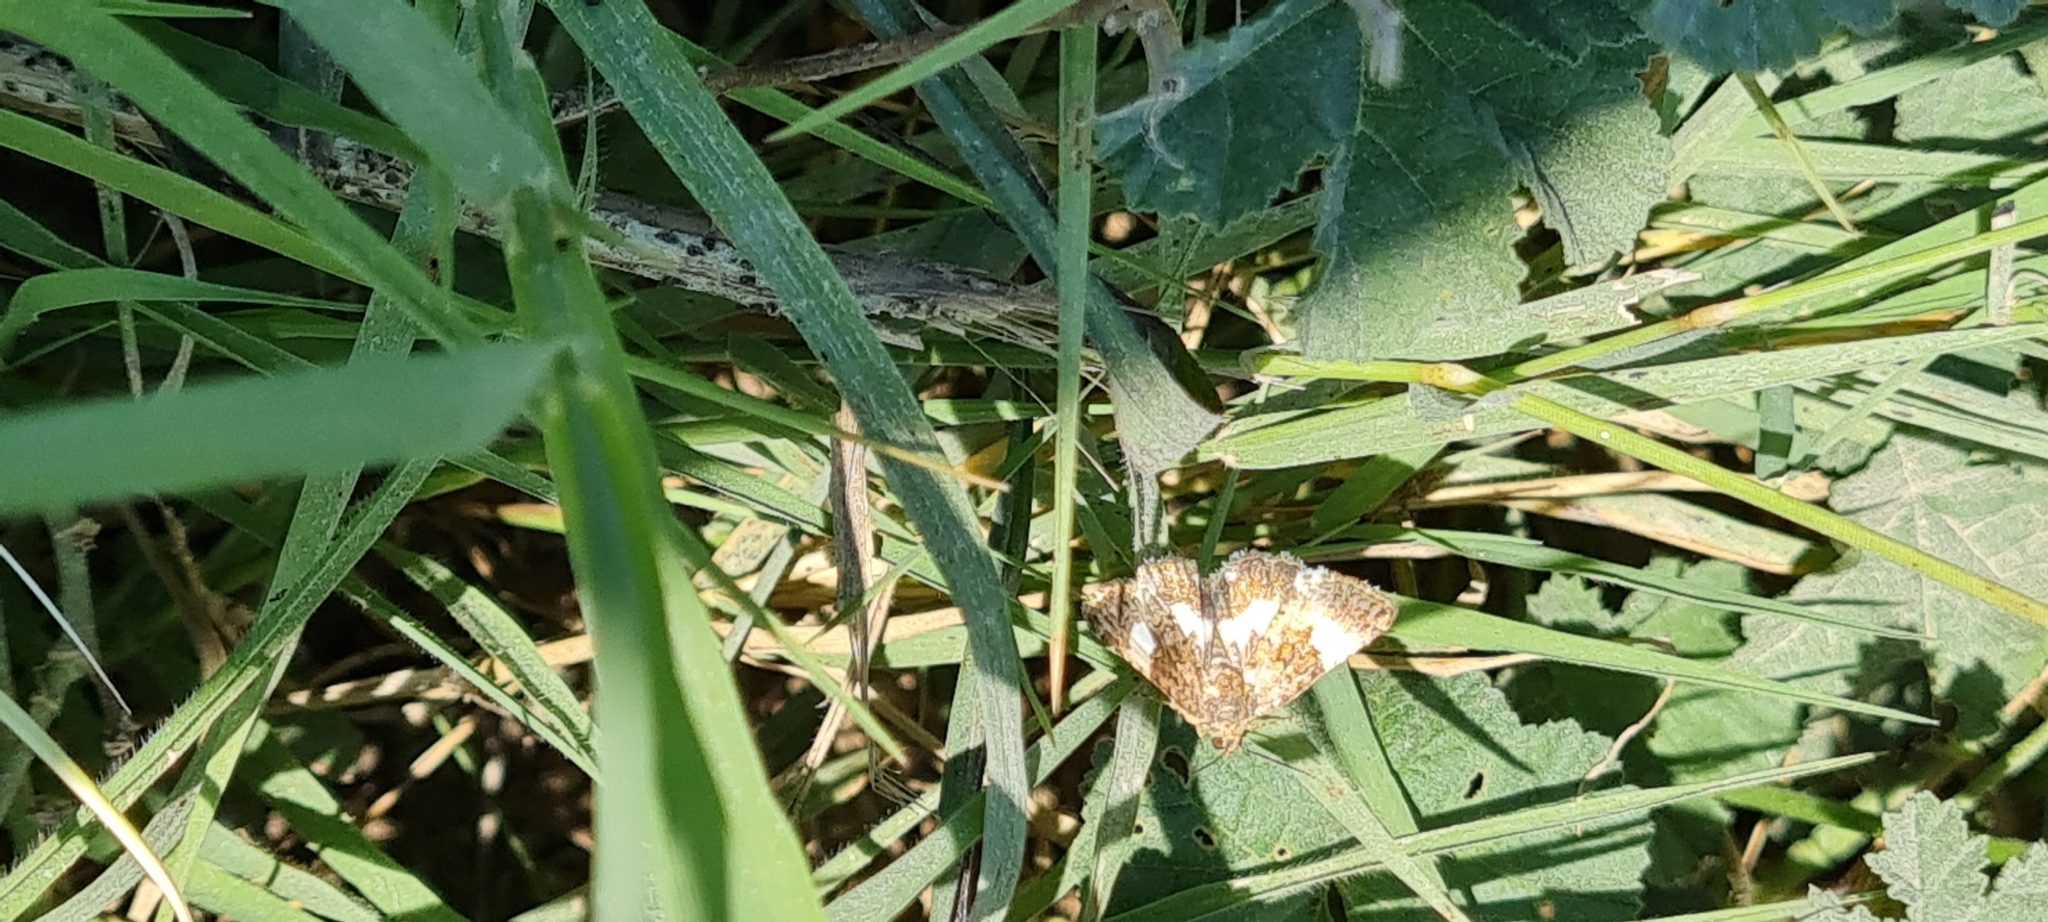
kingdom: Animalia
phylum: Arthropoda
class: Insecta
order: Lepidoptera
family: Erebidae
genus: Tyta
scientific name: Tyta luctuosa
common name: Four-spotted
